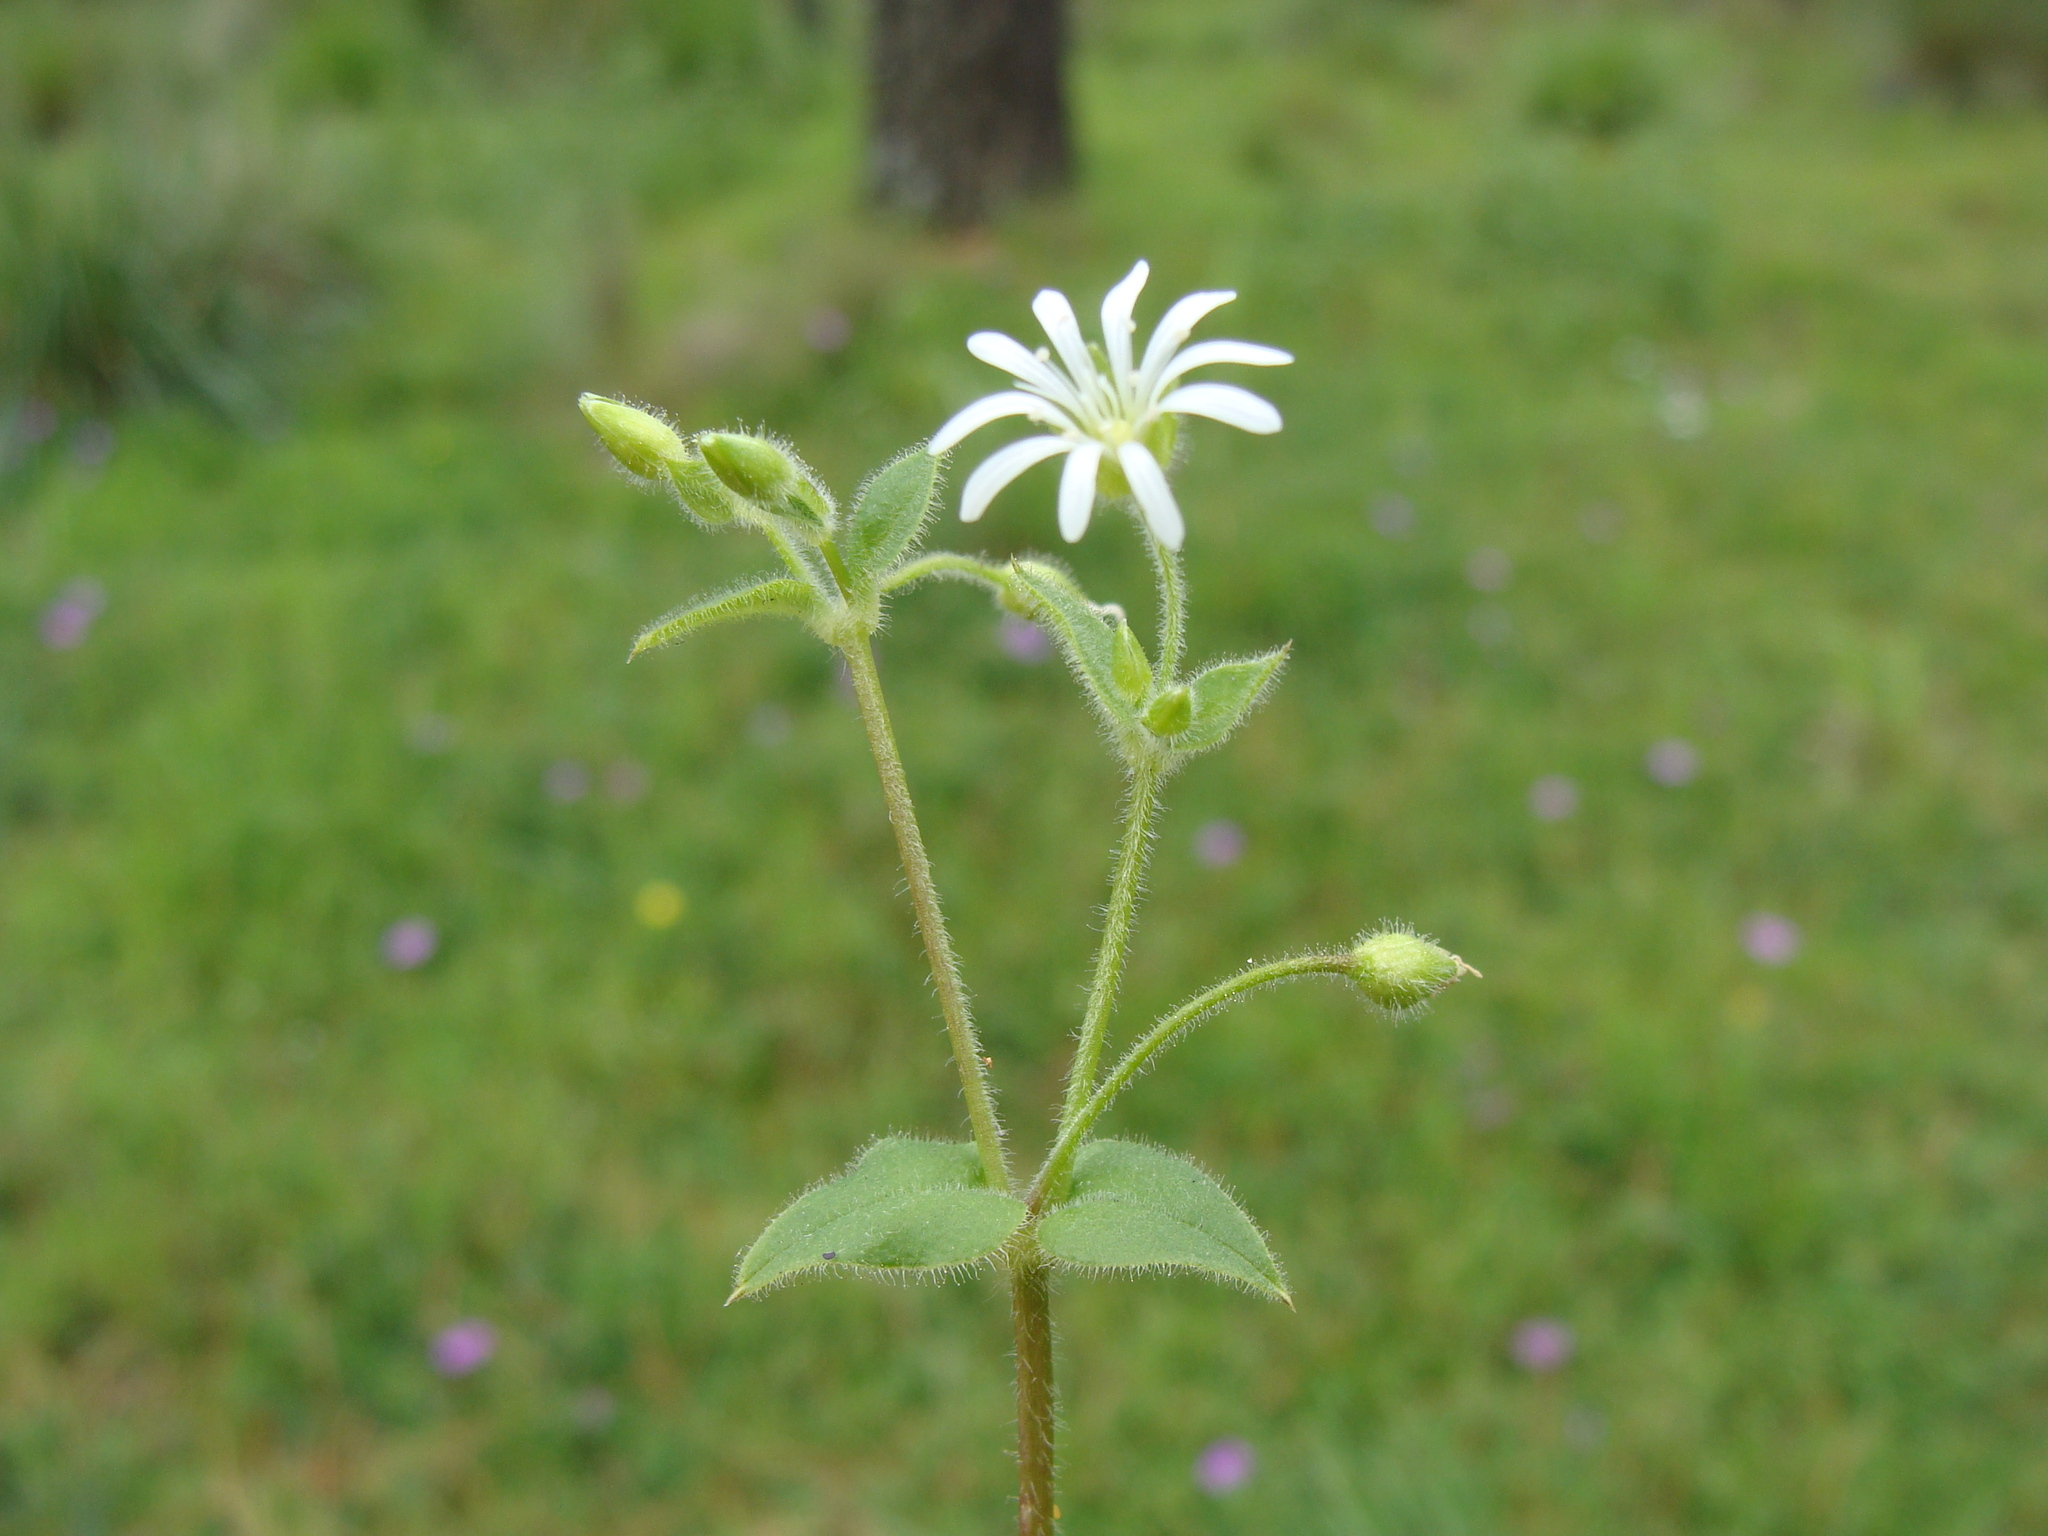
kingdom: Plantae
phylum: Tracheophyta
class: Magnoliopsida
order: Caryophyllales
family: Caryophyllaceae
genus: Stellaria
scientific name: Stellaria cuspidata
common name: Mexican chickweed
